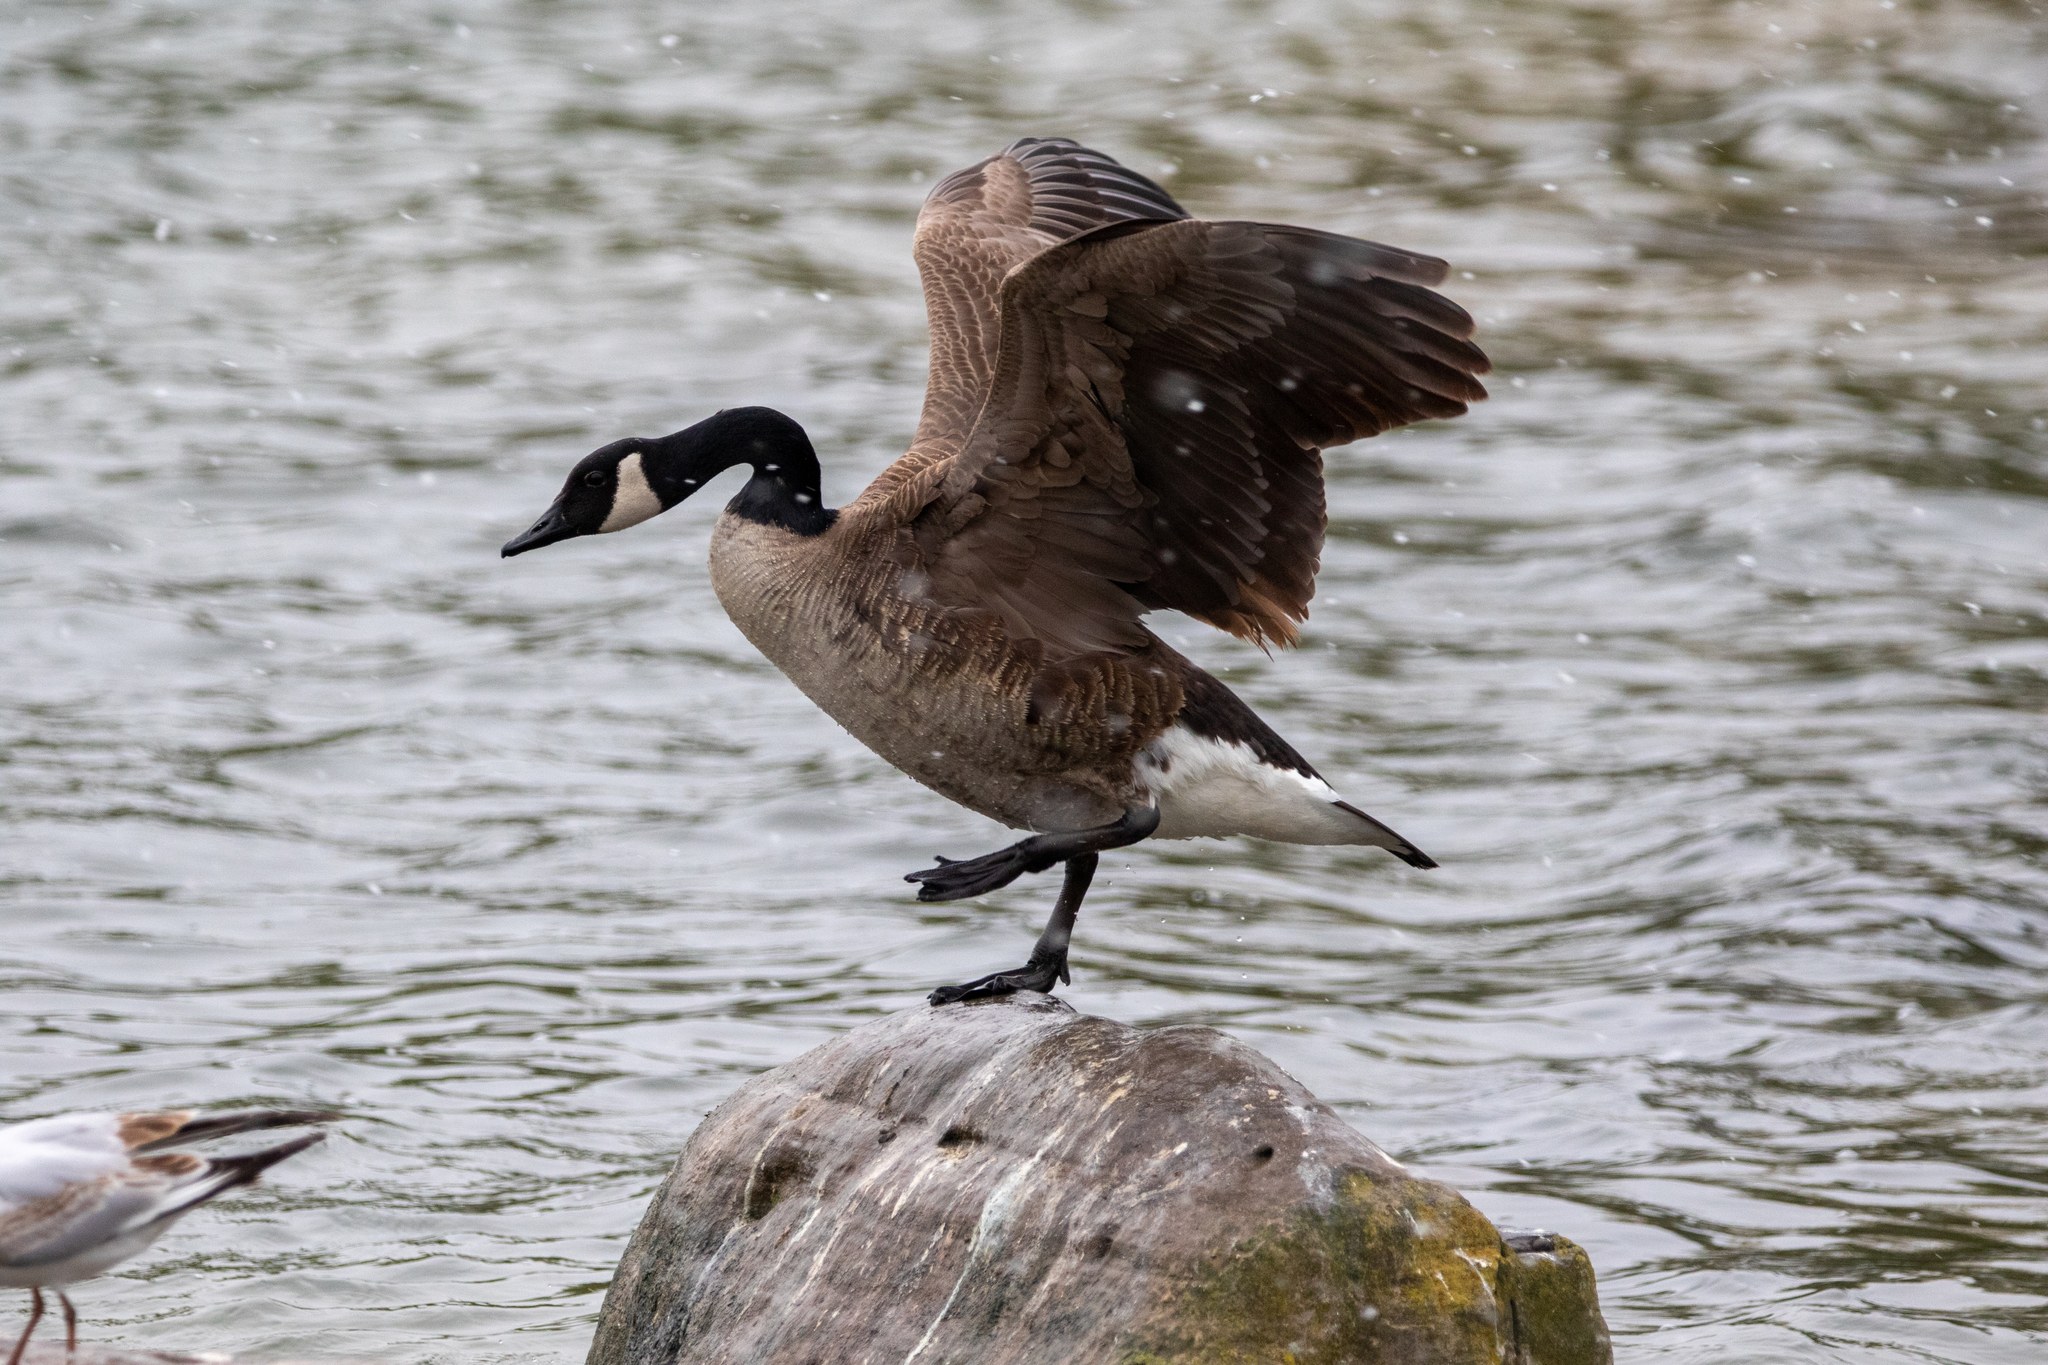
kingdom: Animalia
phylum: Chordata
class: Aves
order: Anseriformes
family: Anatidae
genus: Branta
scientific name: Branta canadensis
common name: Canada goose
